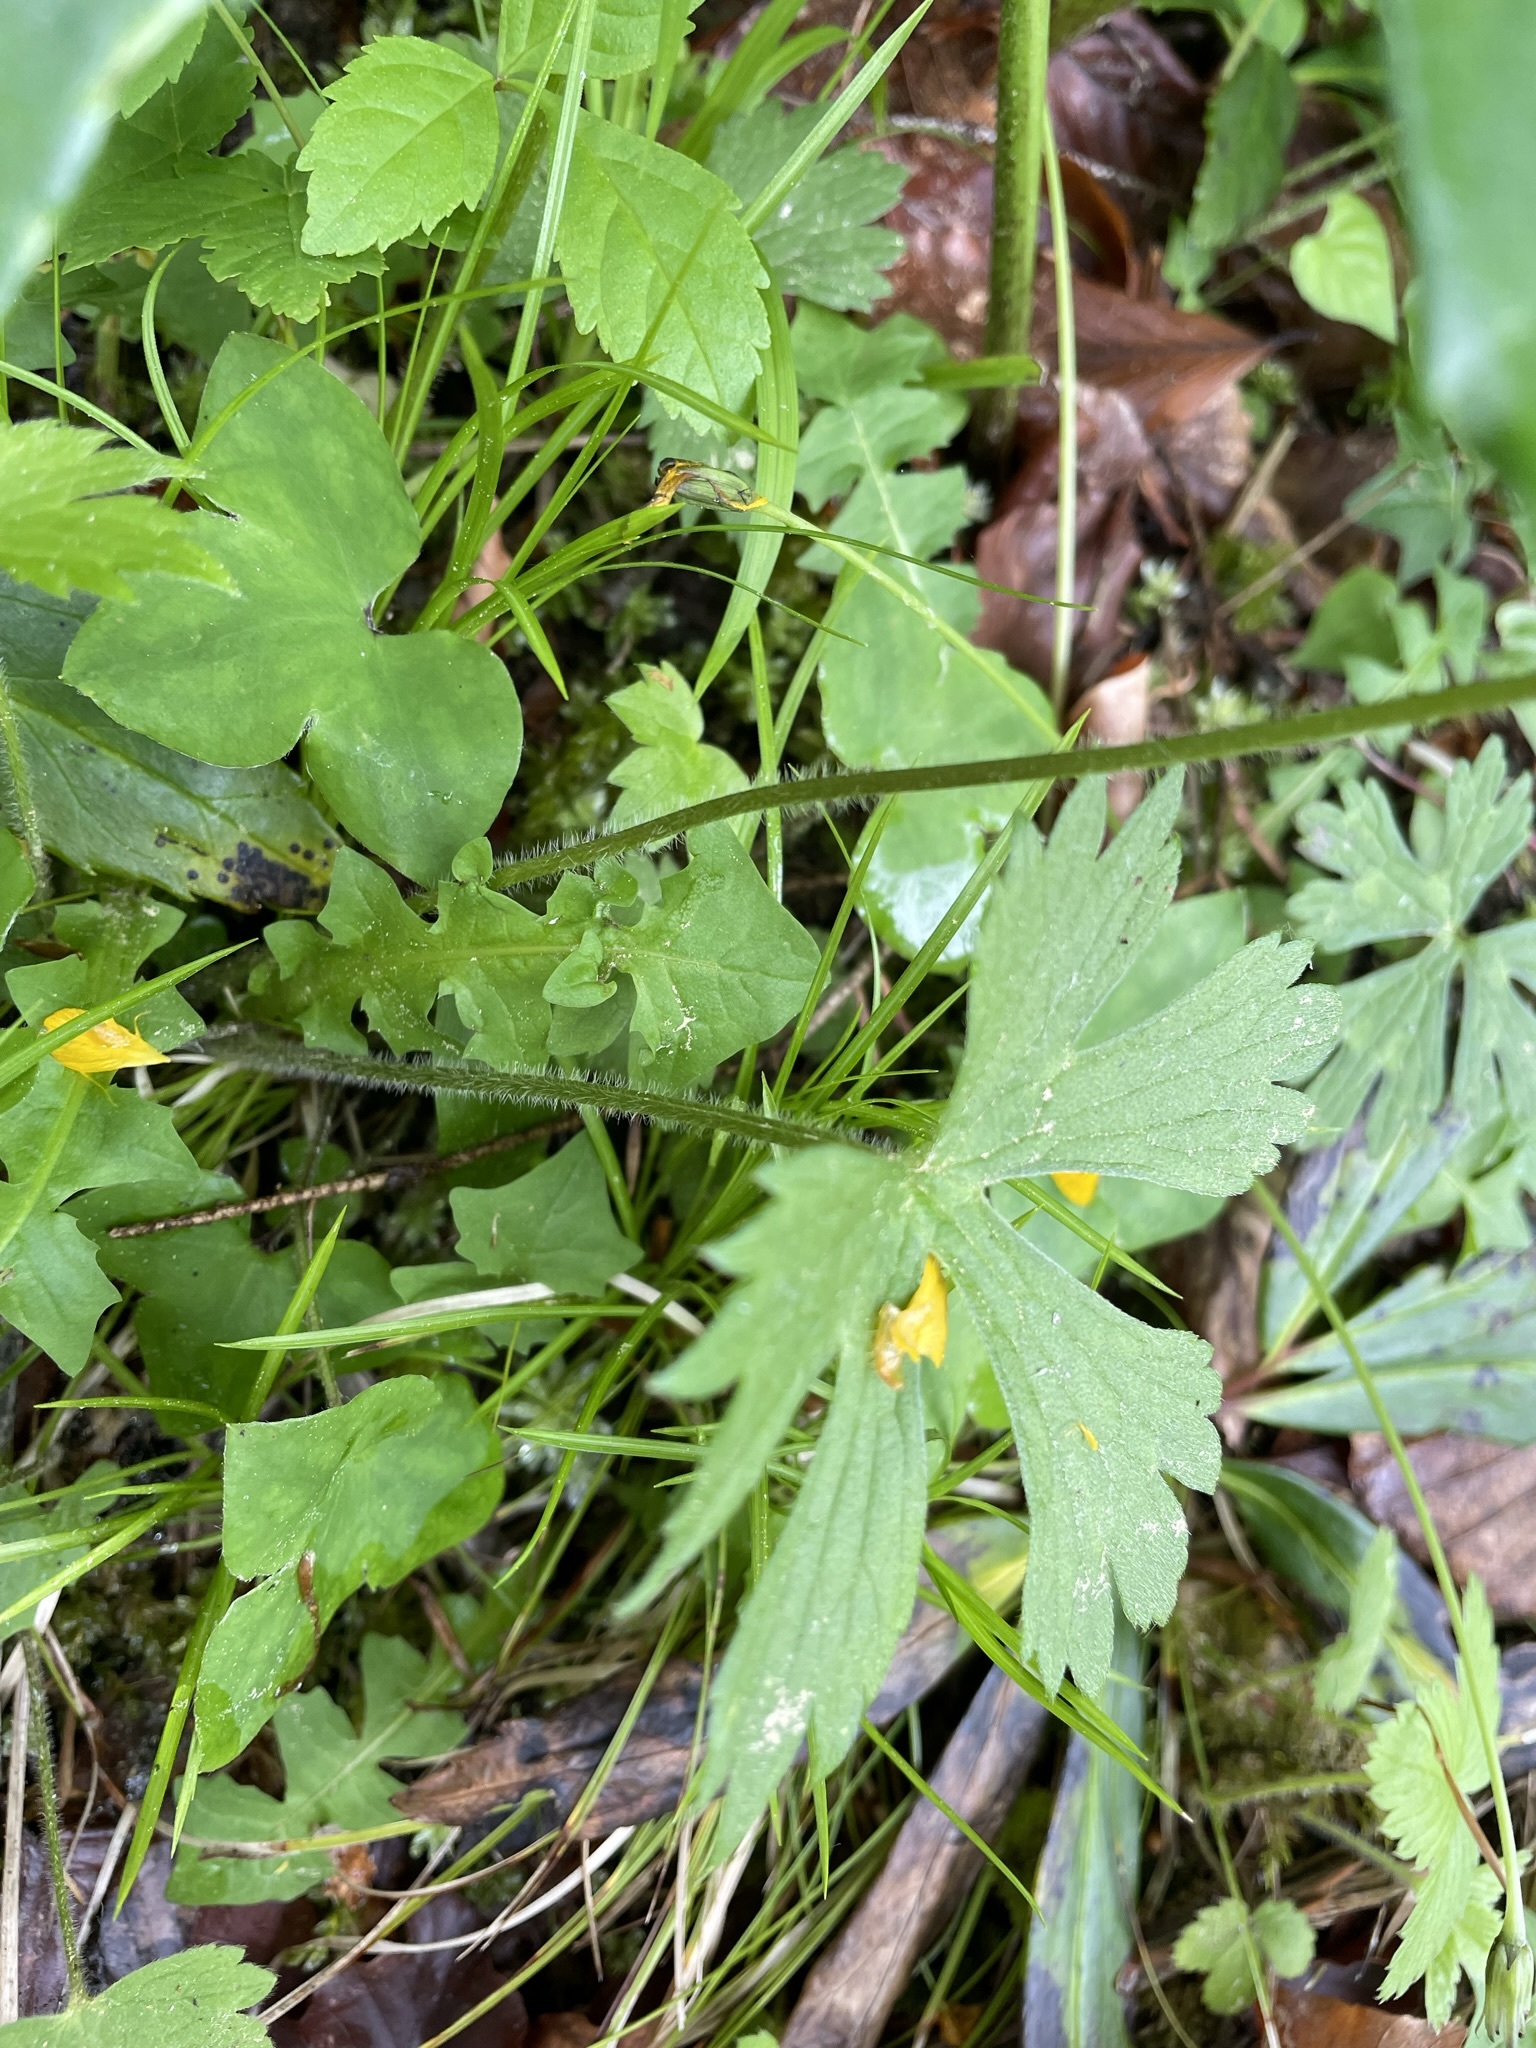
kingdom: Plantae
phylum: Tracheophyta
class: Magnoliopsida
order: Ranunculales
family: Ranunculaceae
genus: Ranunculus
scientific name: Ranunculus lanuginosus
